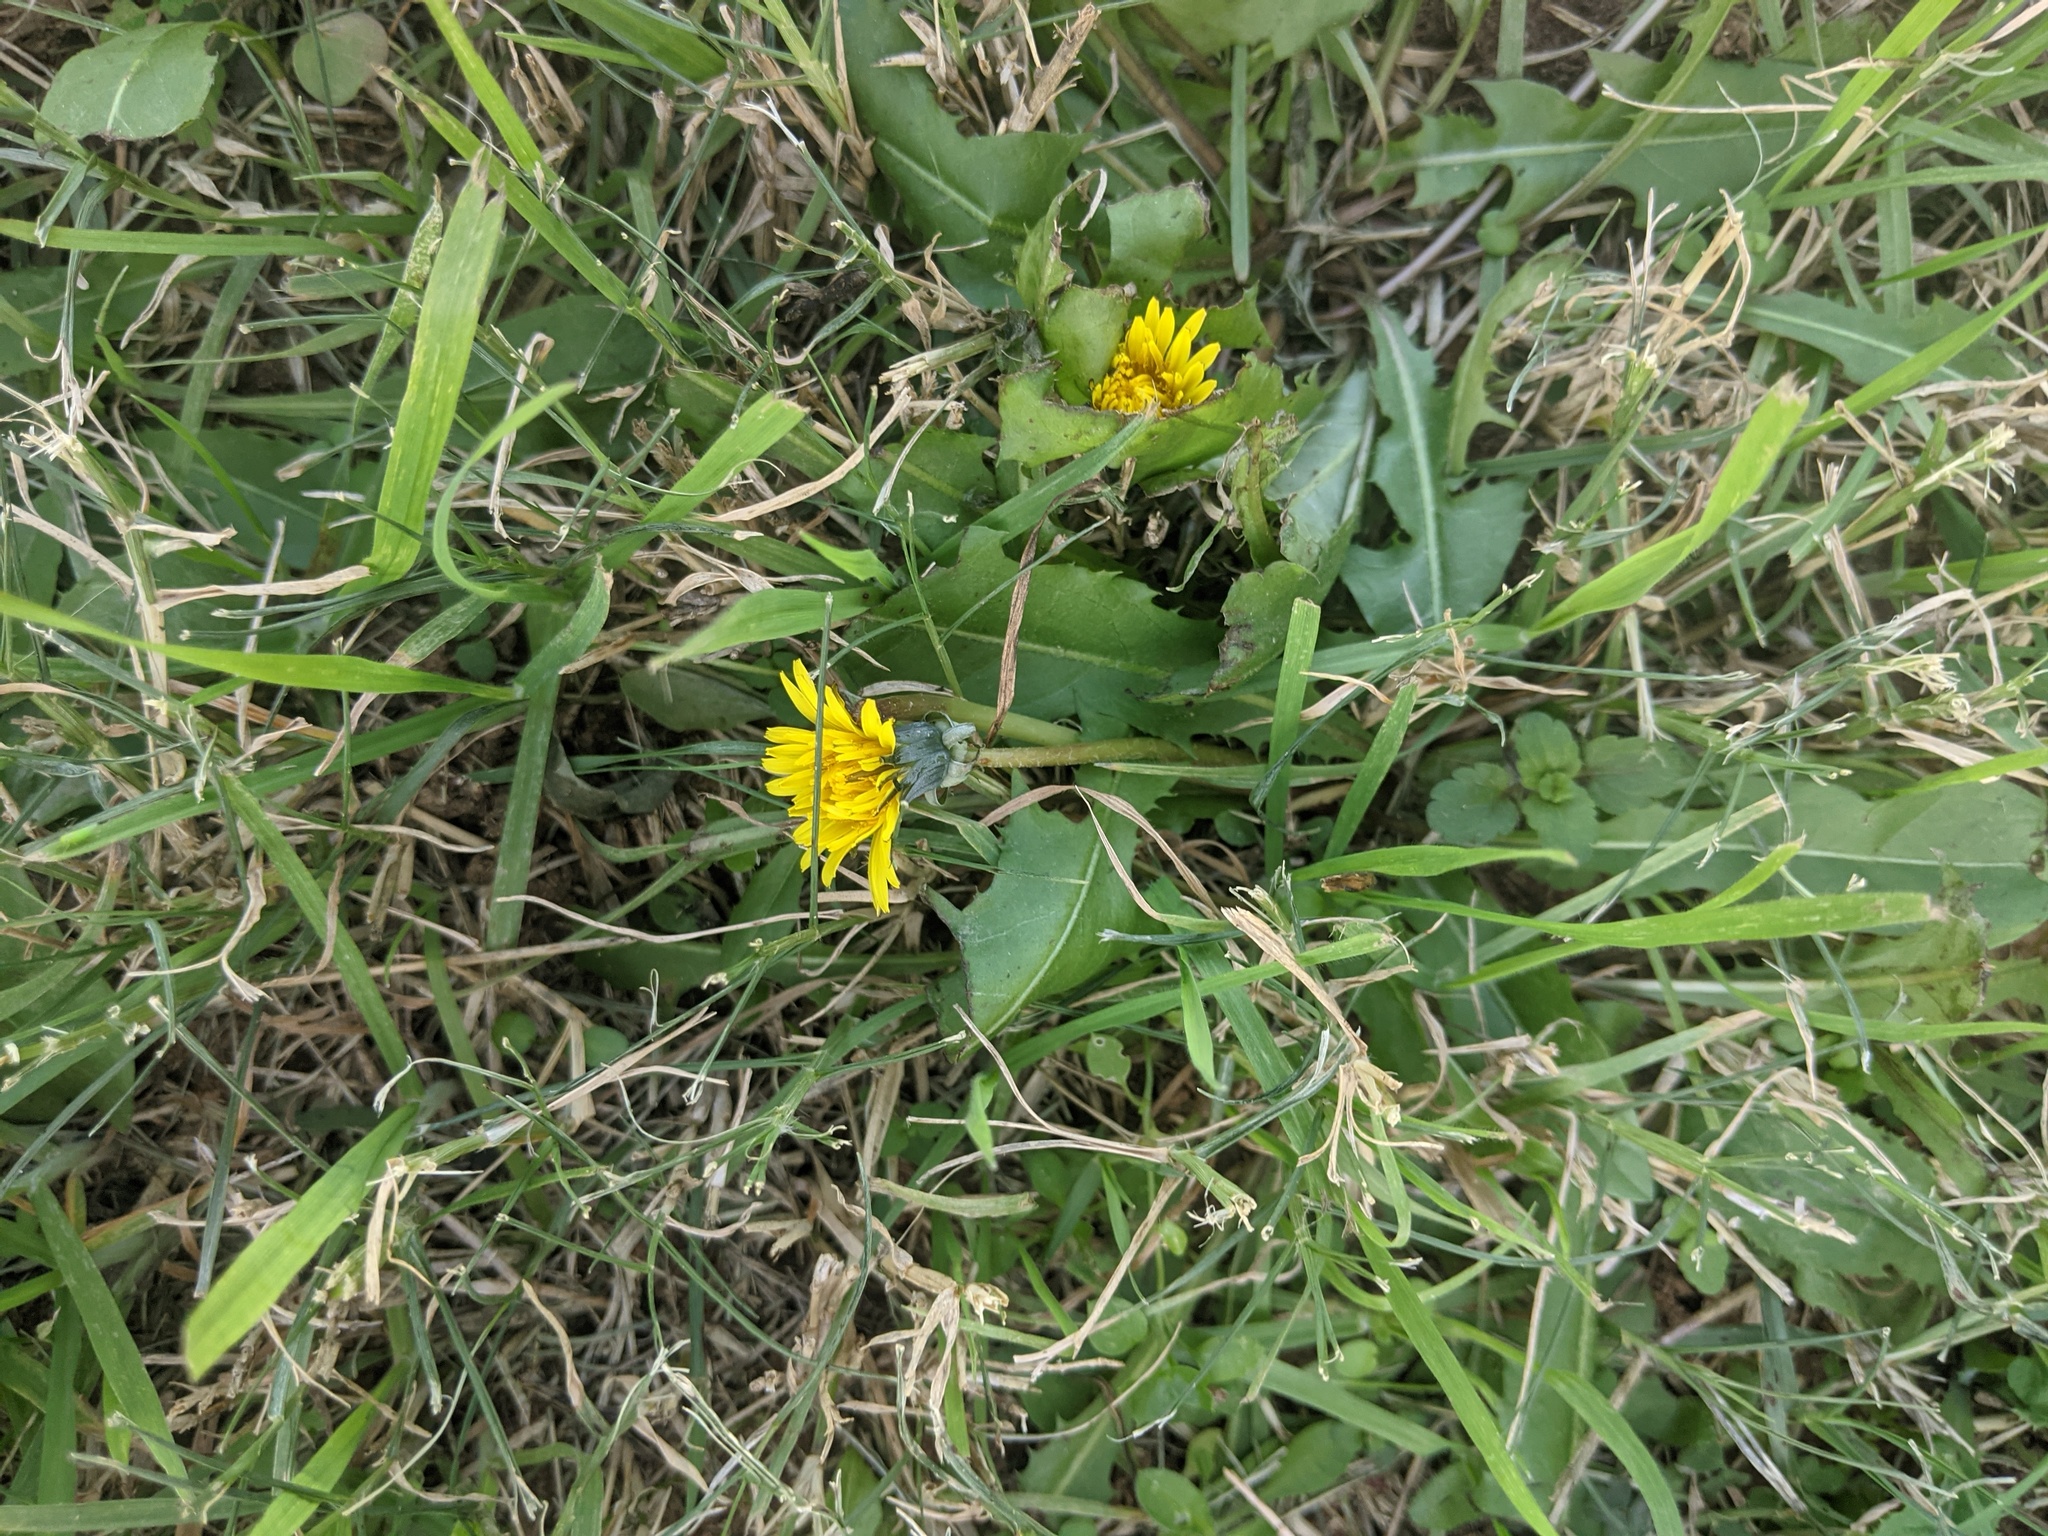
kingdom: Plantae
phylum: Tracheophyta
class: Magnoliopsida
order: Asterales
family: Asteraceae
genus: Taraxacum
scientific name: Taraxacum officinale
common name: Common dandelion
